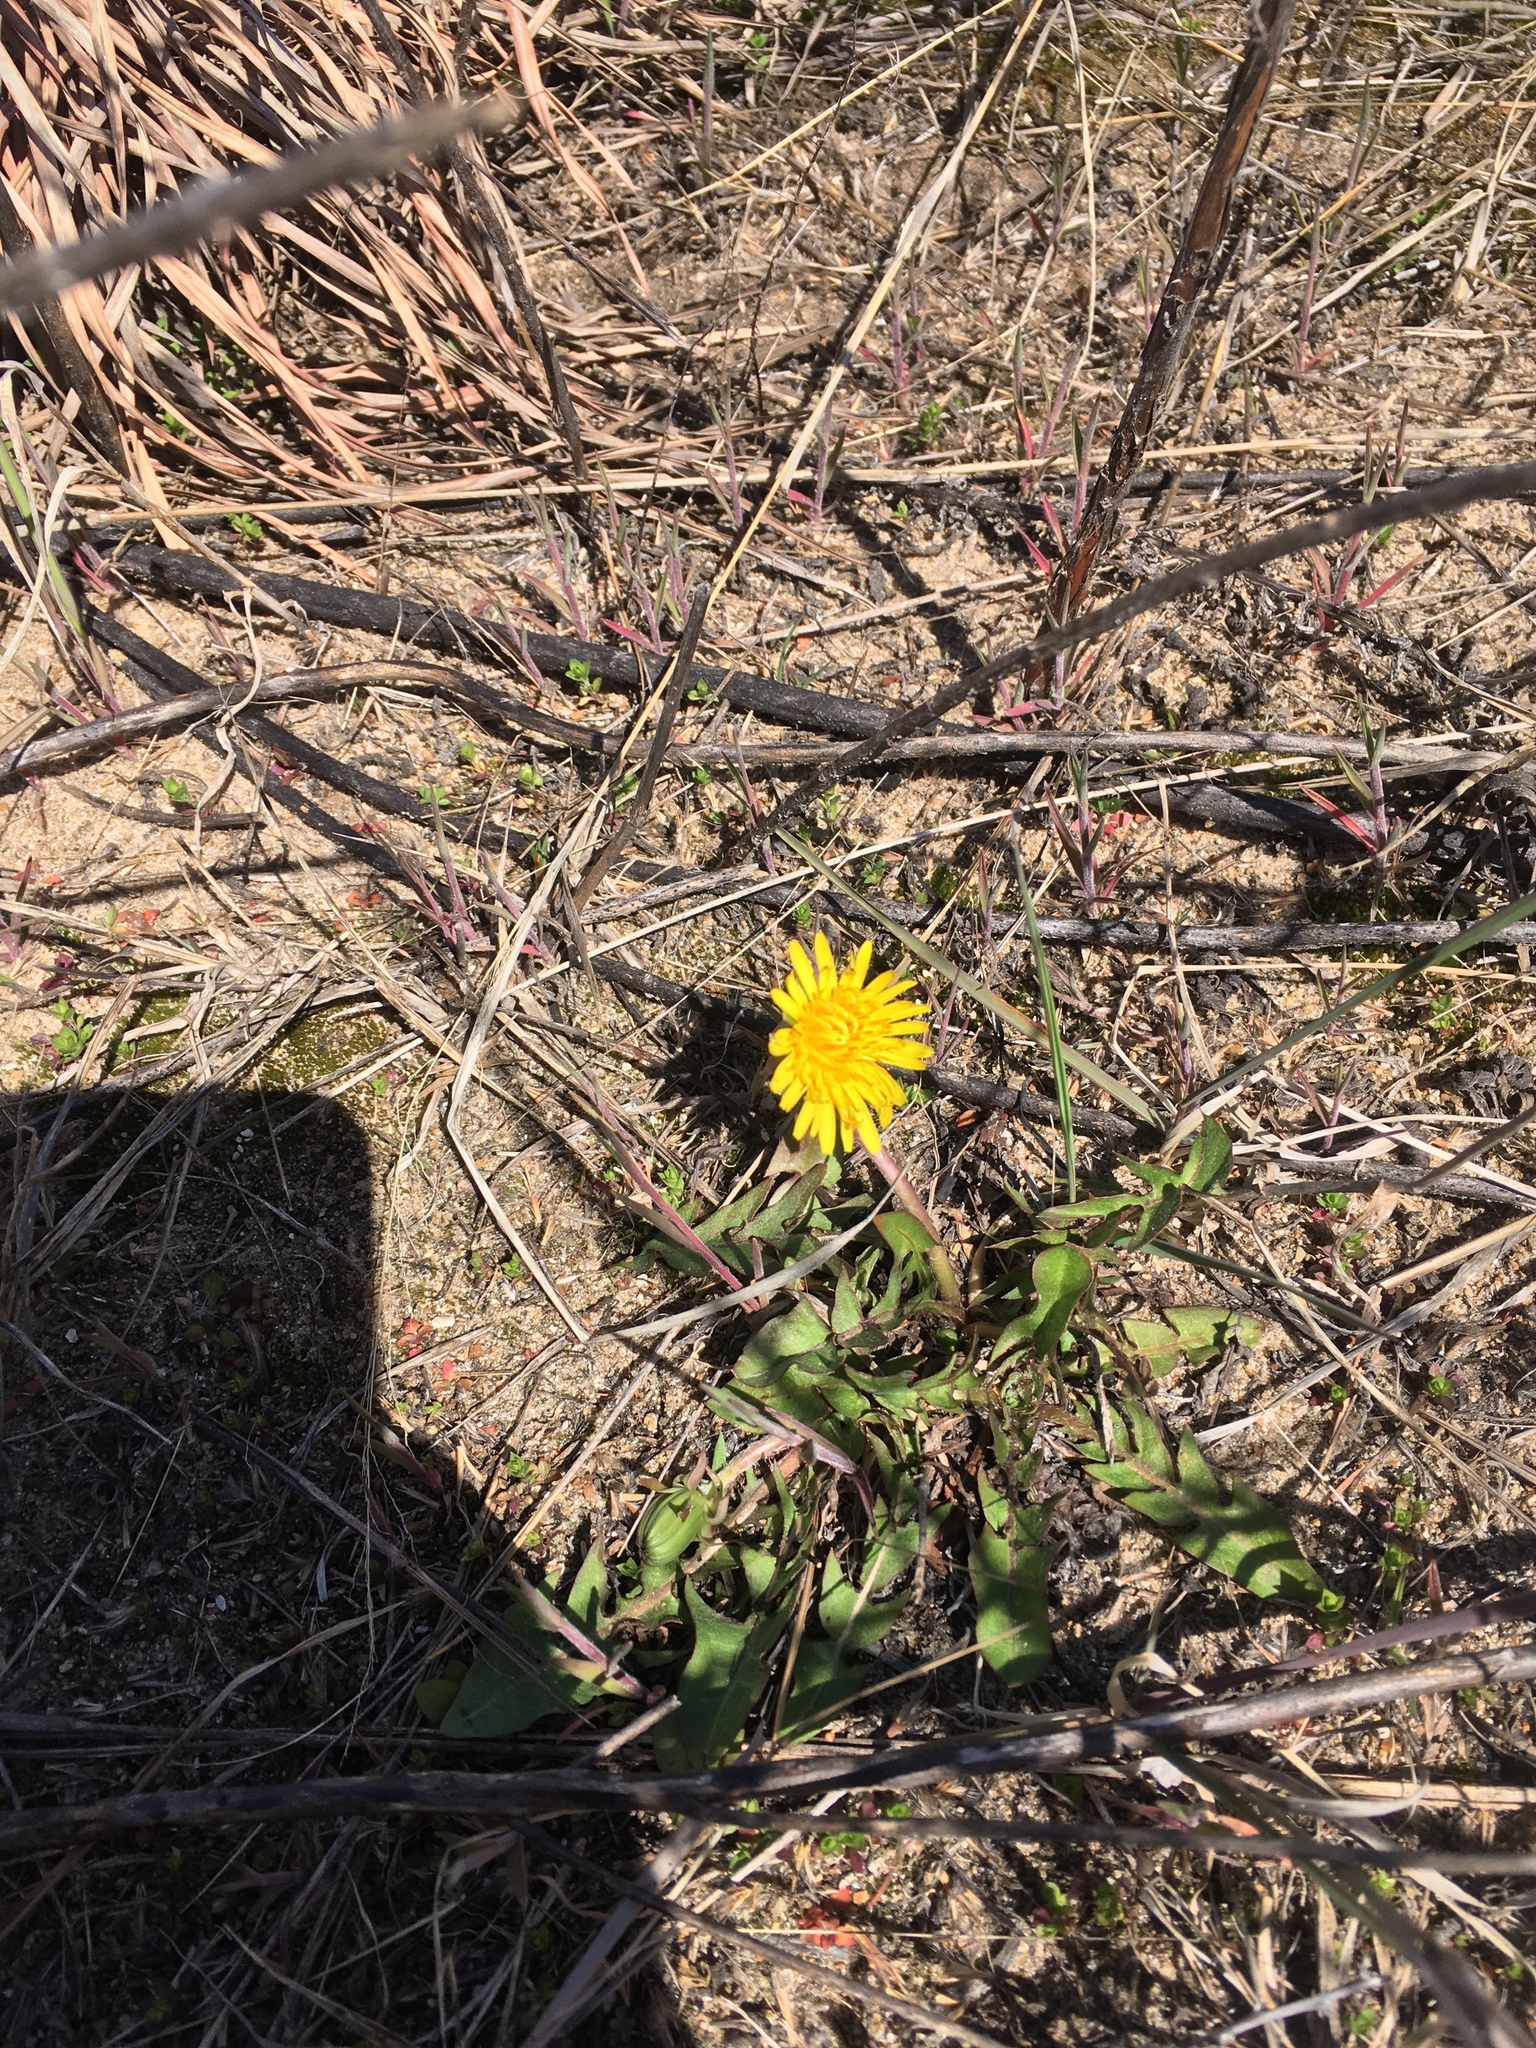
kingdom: Plantae
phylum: Tracheophyta
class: Magnoliopsida
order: Asterales
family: Asteraceae
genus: Taraxacum
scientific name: Taraxacum officinale
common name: Common dandelion
